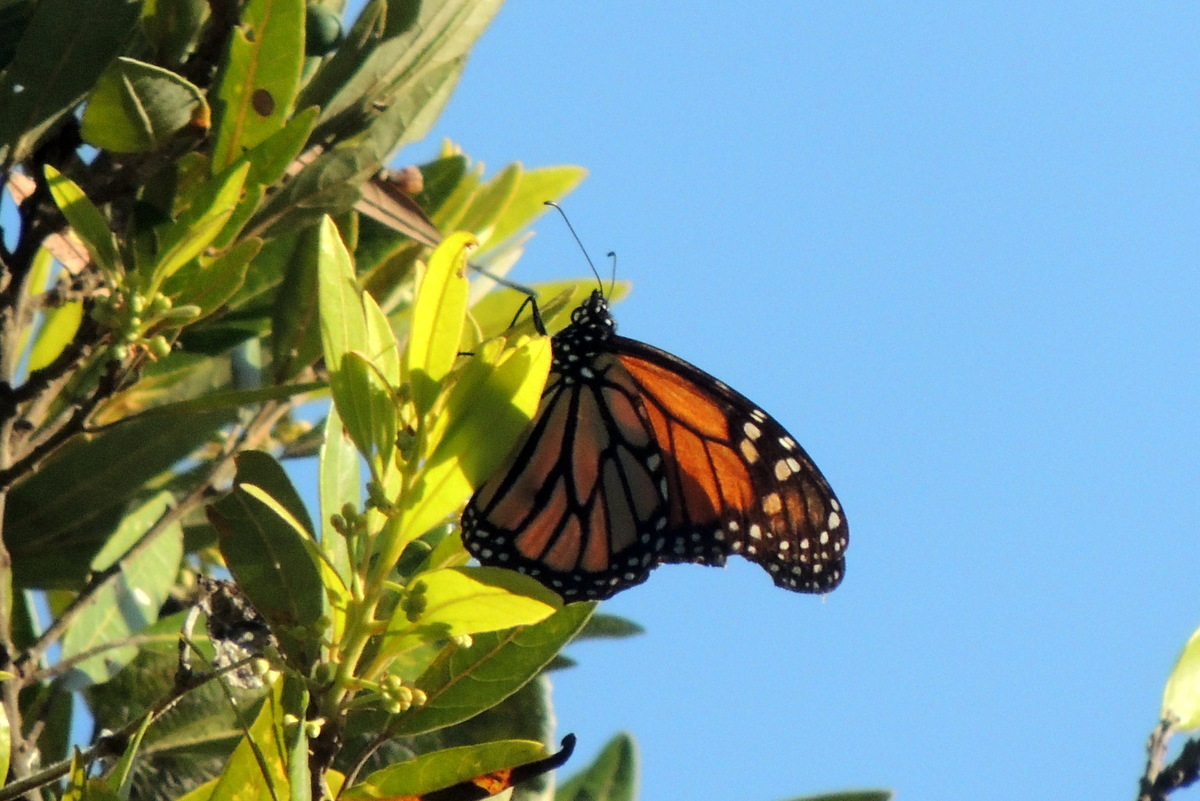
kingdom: Animalia
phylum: Arthropoda
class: Insecta
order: Lepidoptera
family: Nymphalidae
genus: Danaus
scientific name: Danaus plexippus
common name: Monarch
